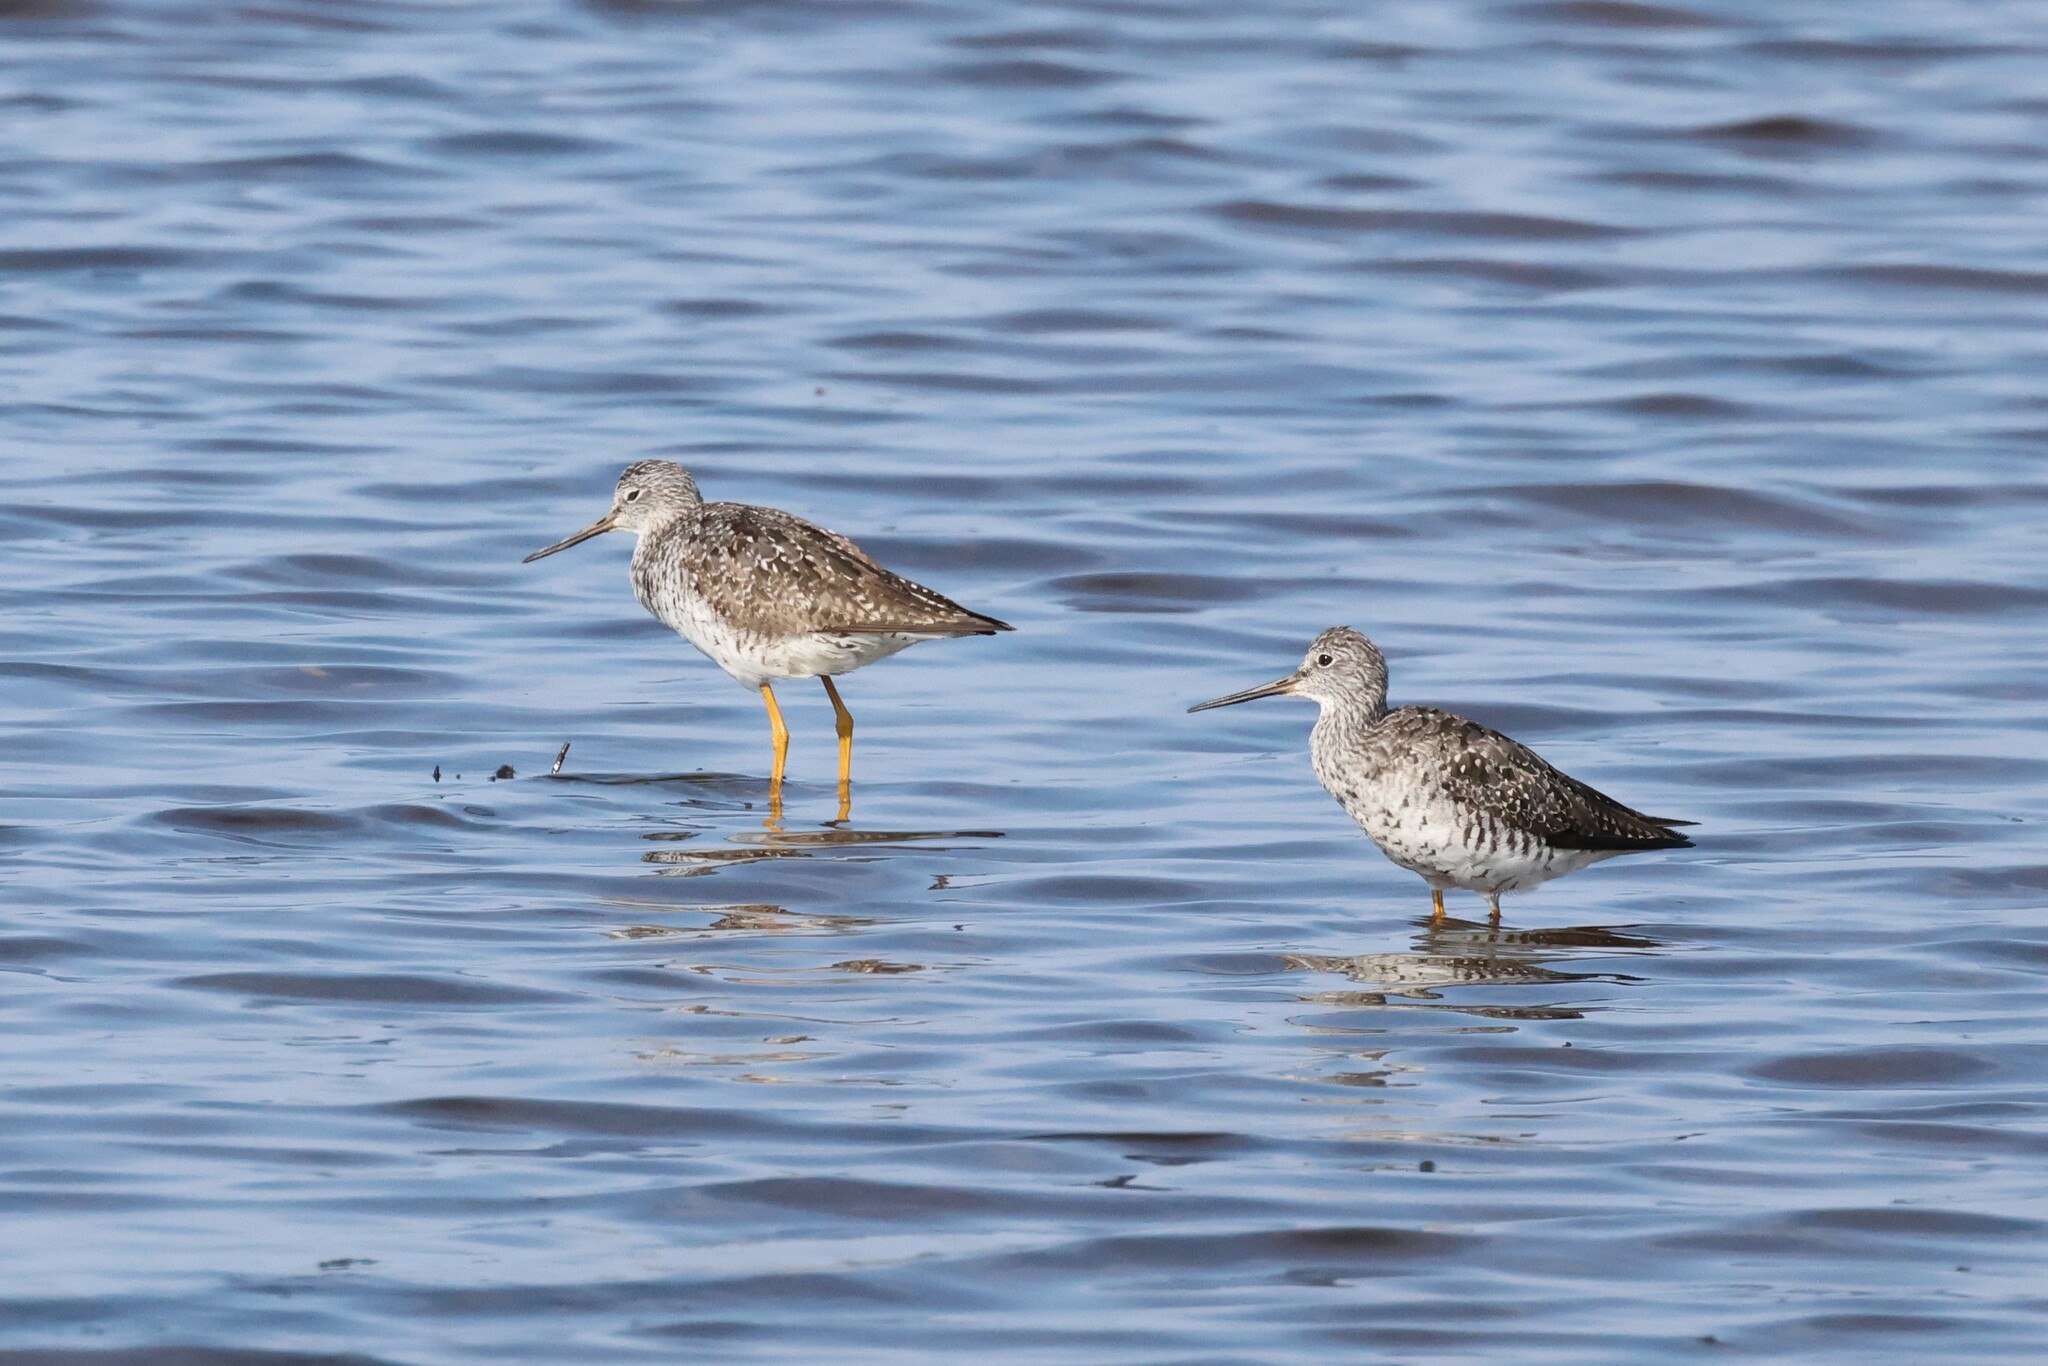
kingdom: Animalia
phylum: Chordata
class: Aves
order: Charadriiformes
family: Scolopacidae
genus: Tringa
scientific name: Tringa melanoleuca
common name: Greater yellowlegs
